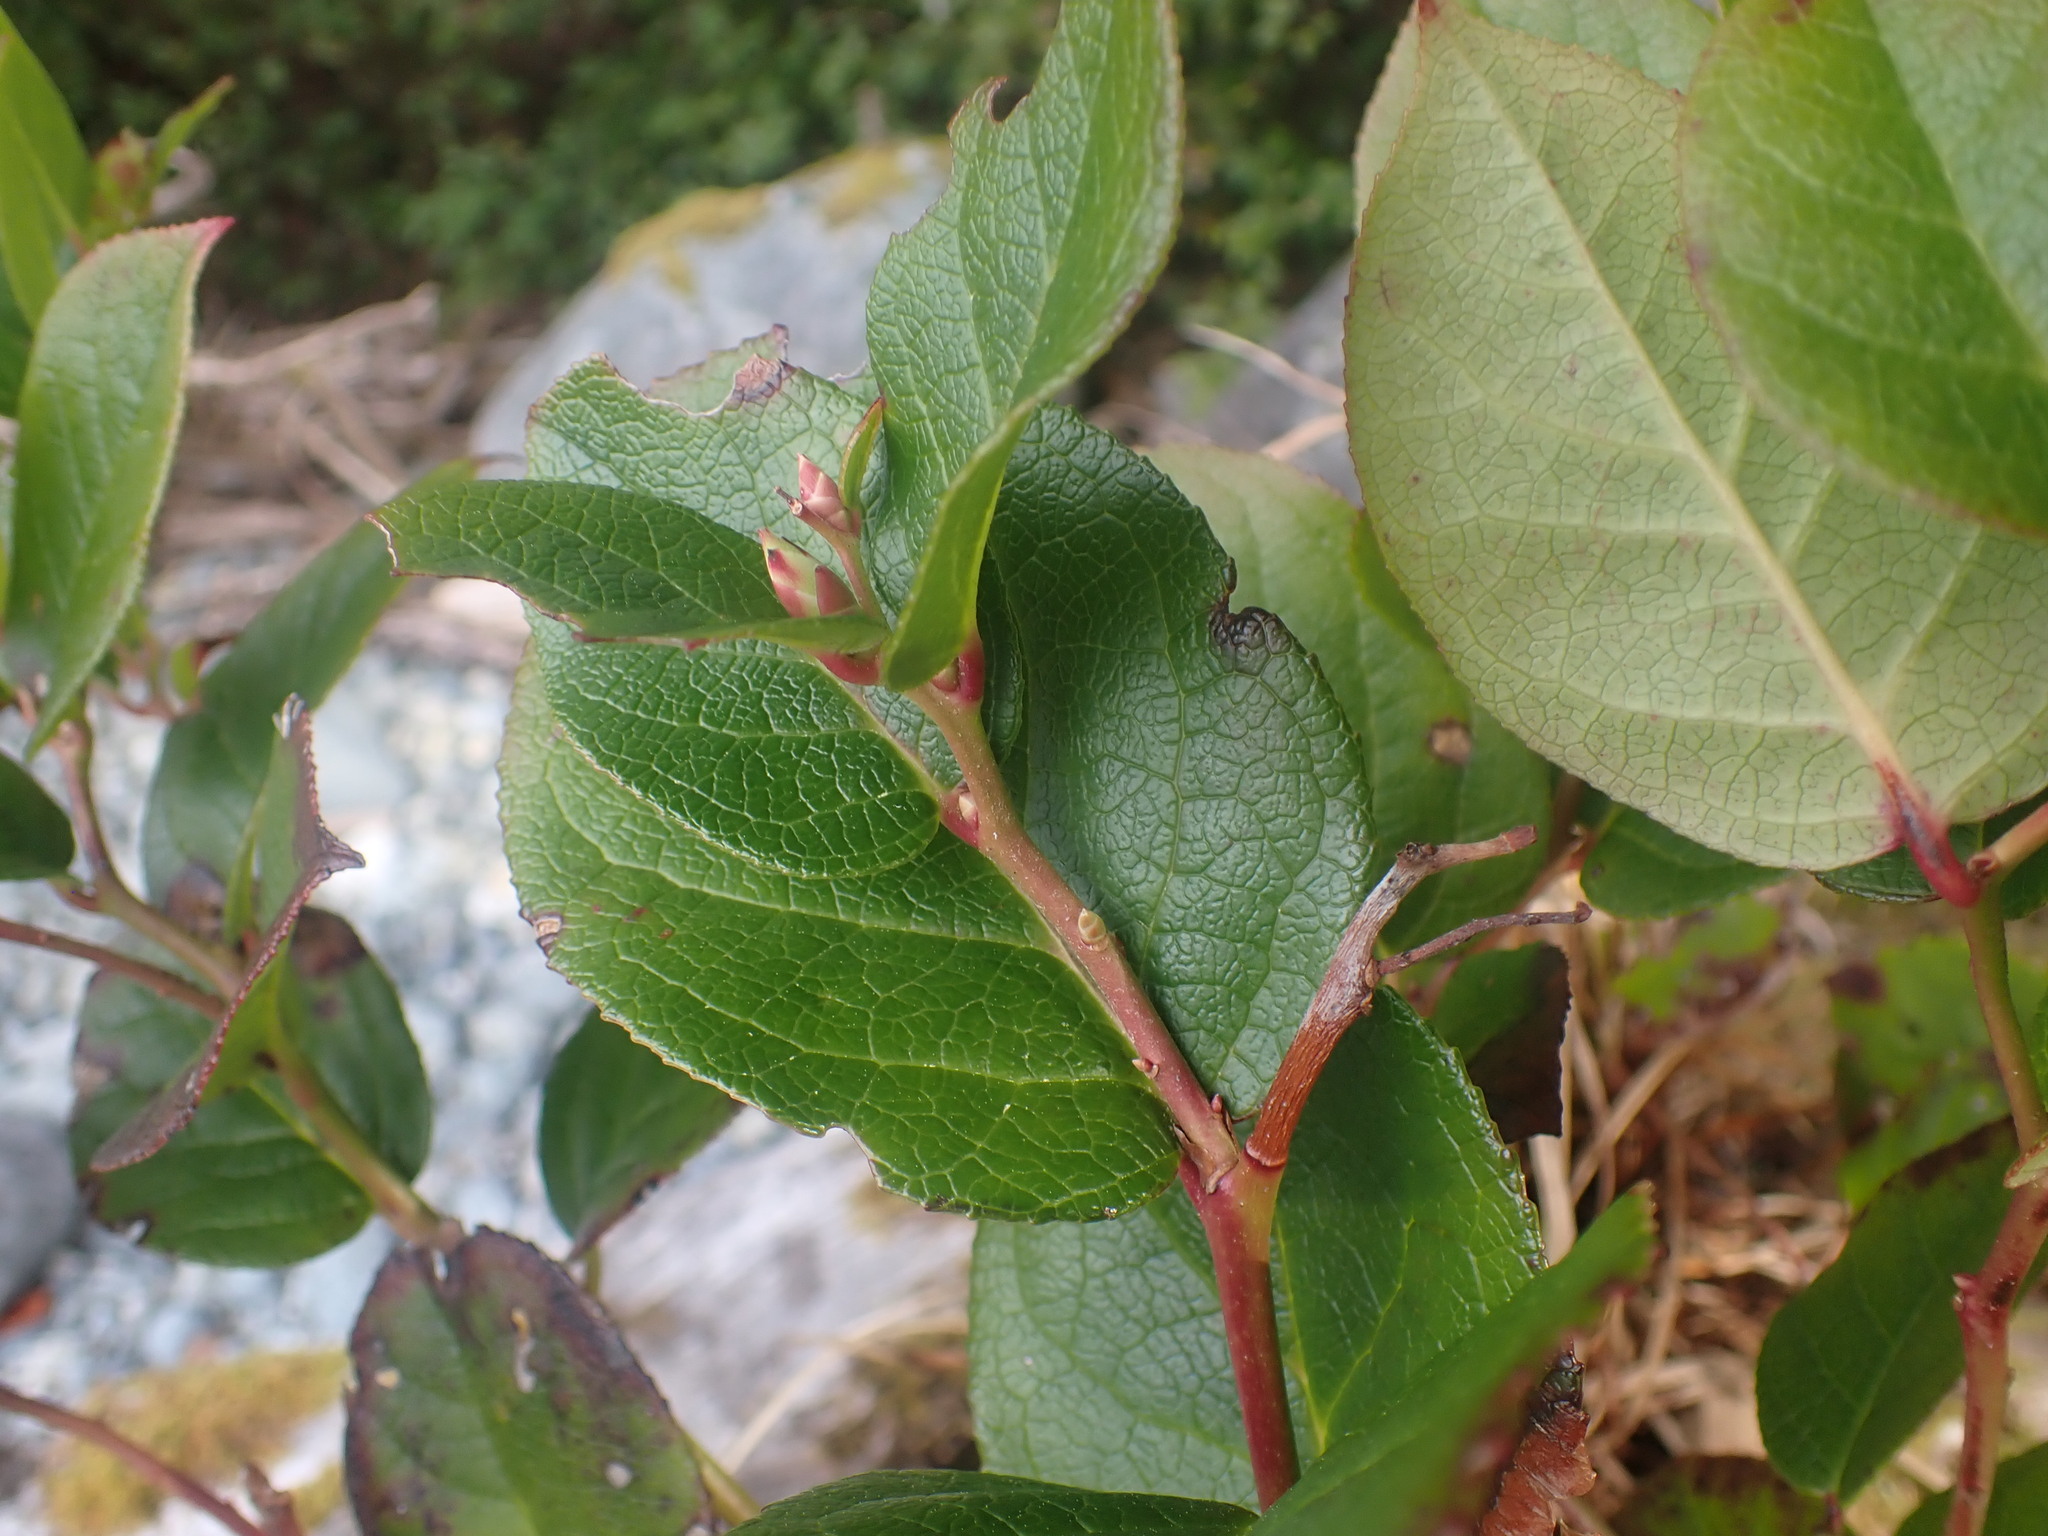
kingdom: Plantae
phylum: Tracheophyta
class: Magnoliopsida
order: Ericales
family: Ericaceae
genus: Gaultheria
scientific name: Gaultheria shallon
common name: Shallon
